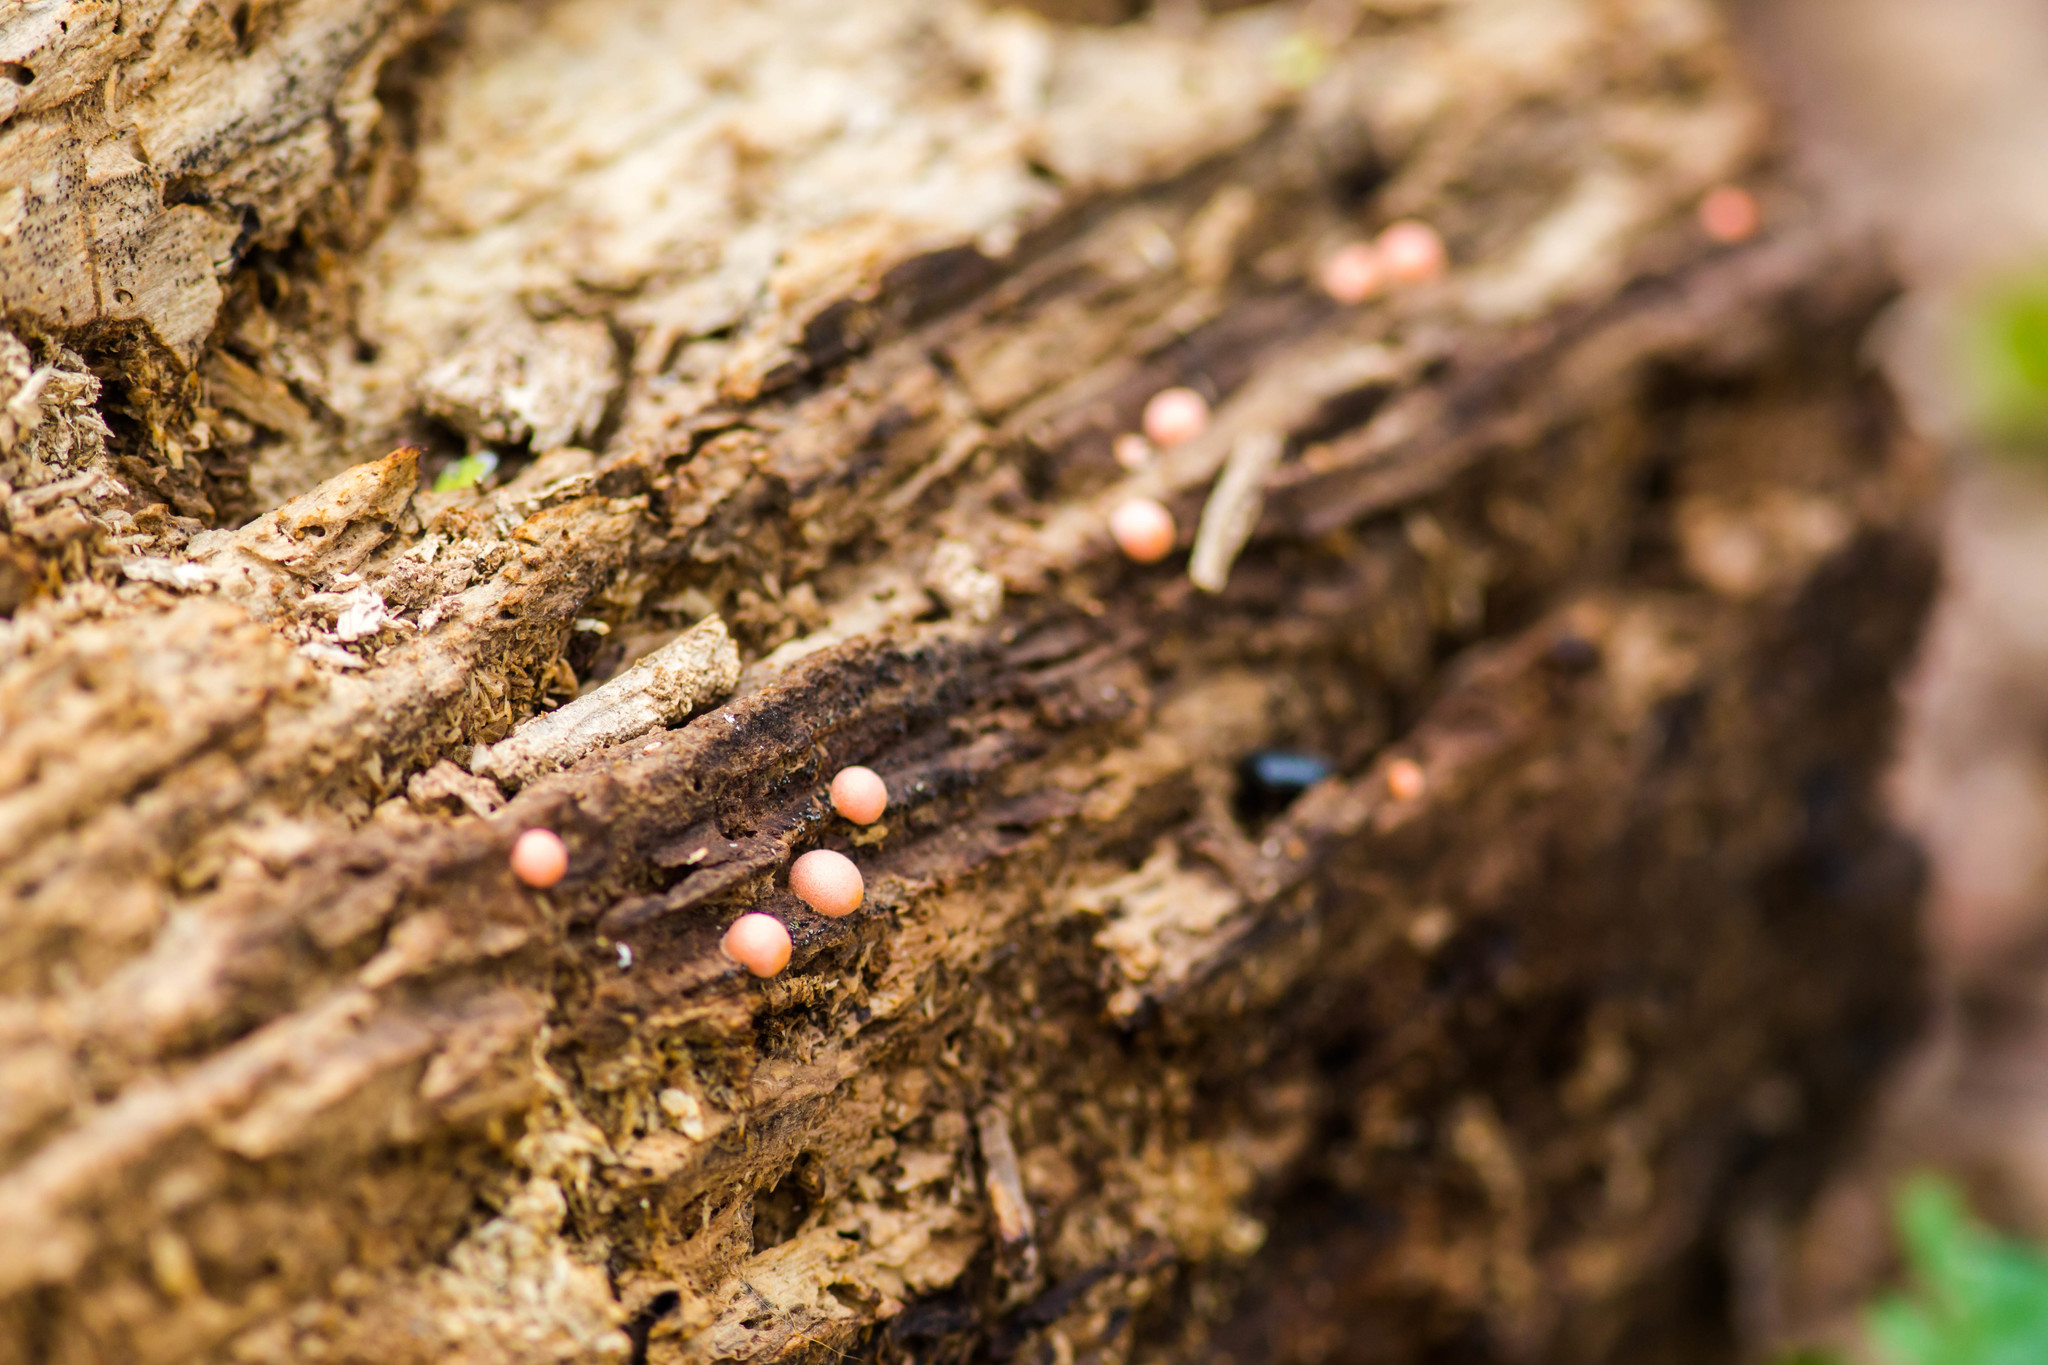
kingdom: Protozoa
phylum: Mycetozoa
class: Myxomycetes
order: Cribrariales
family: Tubiferaceae
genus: Lycogala
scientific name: Lycogala epidendrum
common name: Wolf's milk
